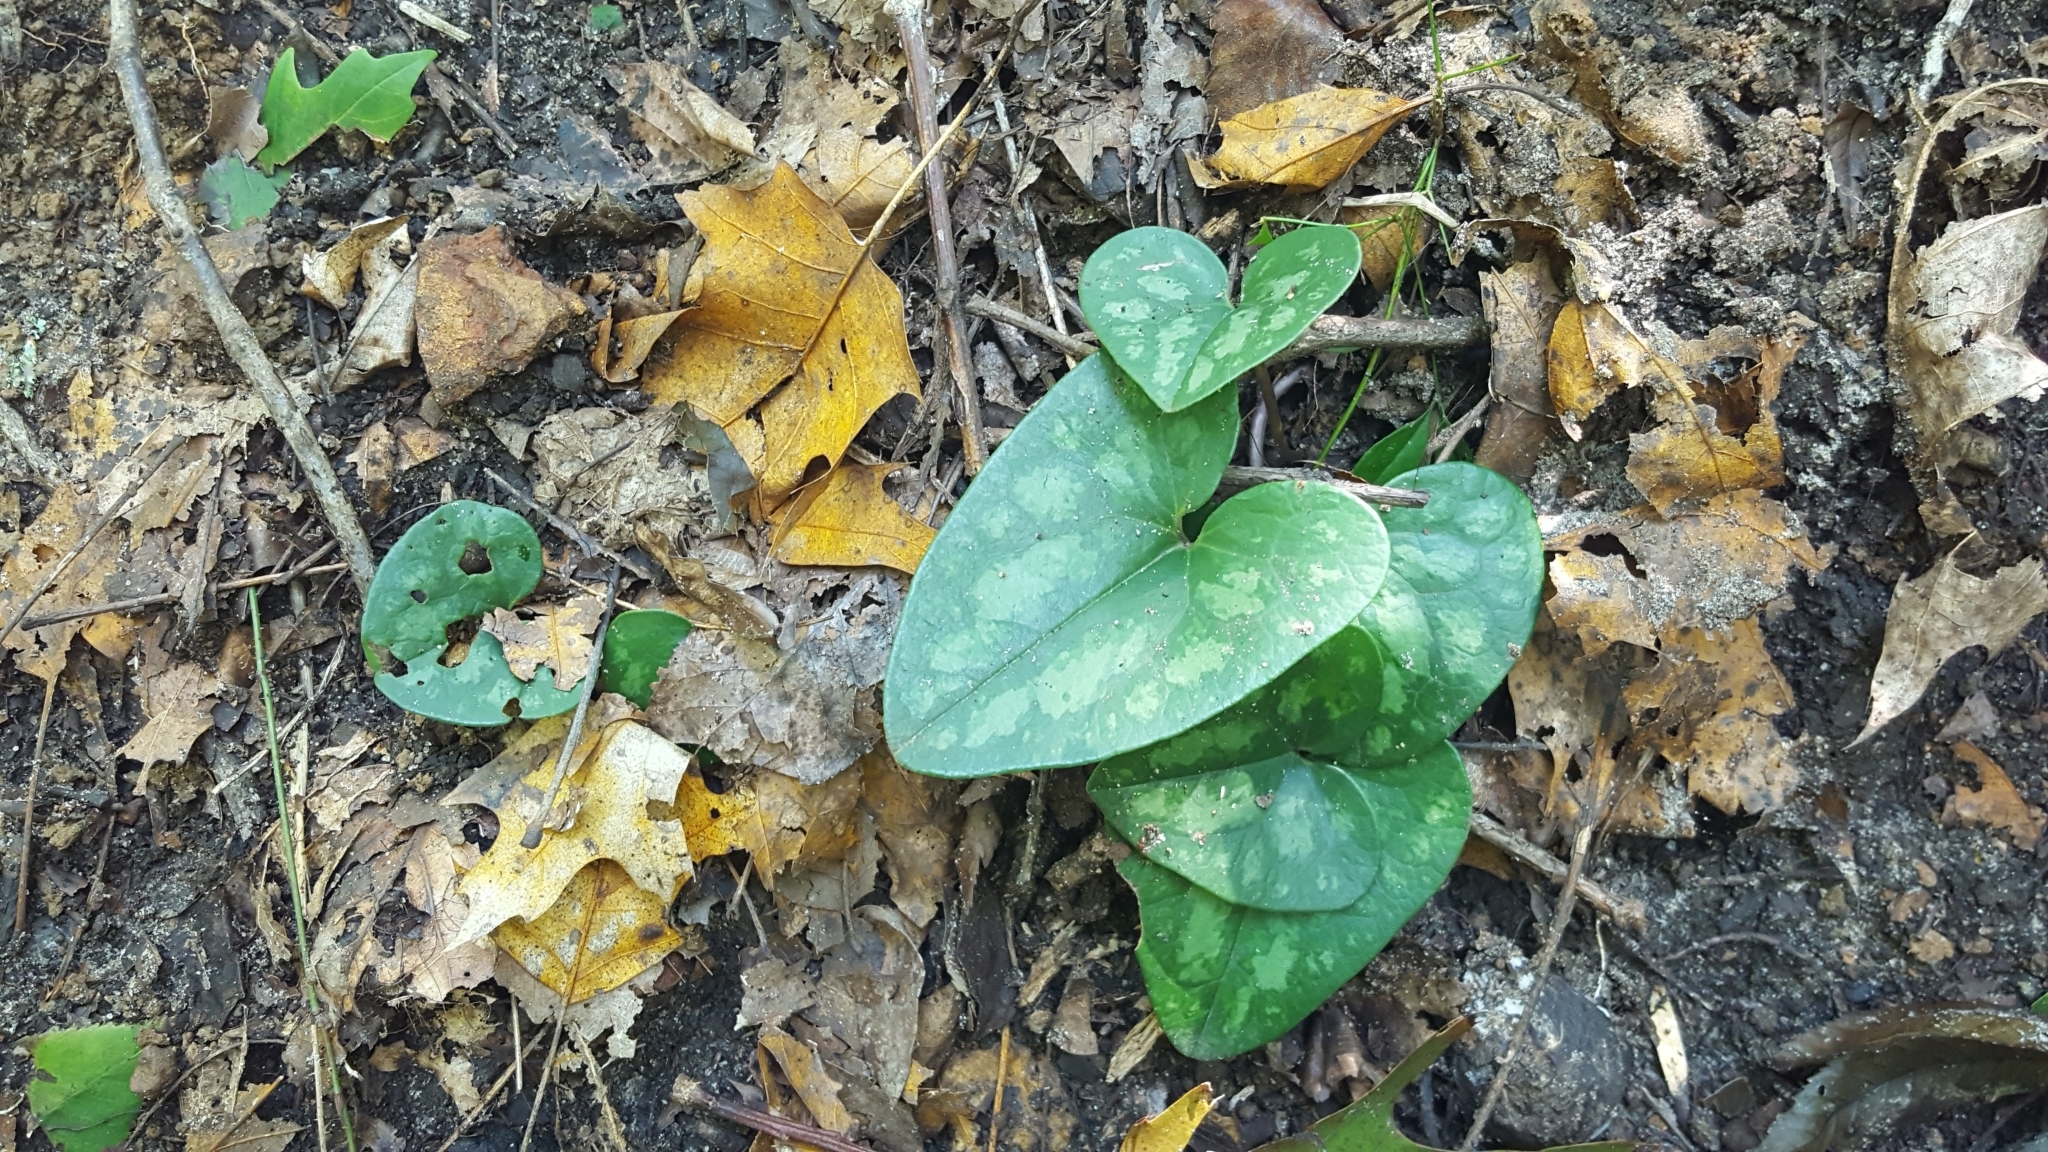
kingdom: Plantae
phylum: Tracheophyta
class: Magnoliopsida
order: Piperales
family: Aristolochiaceae
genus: Hexastylis
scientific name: Hexastylis arifolia
